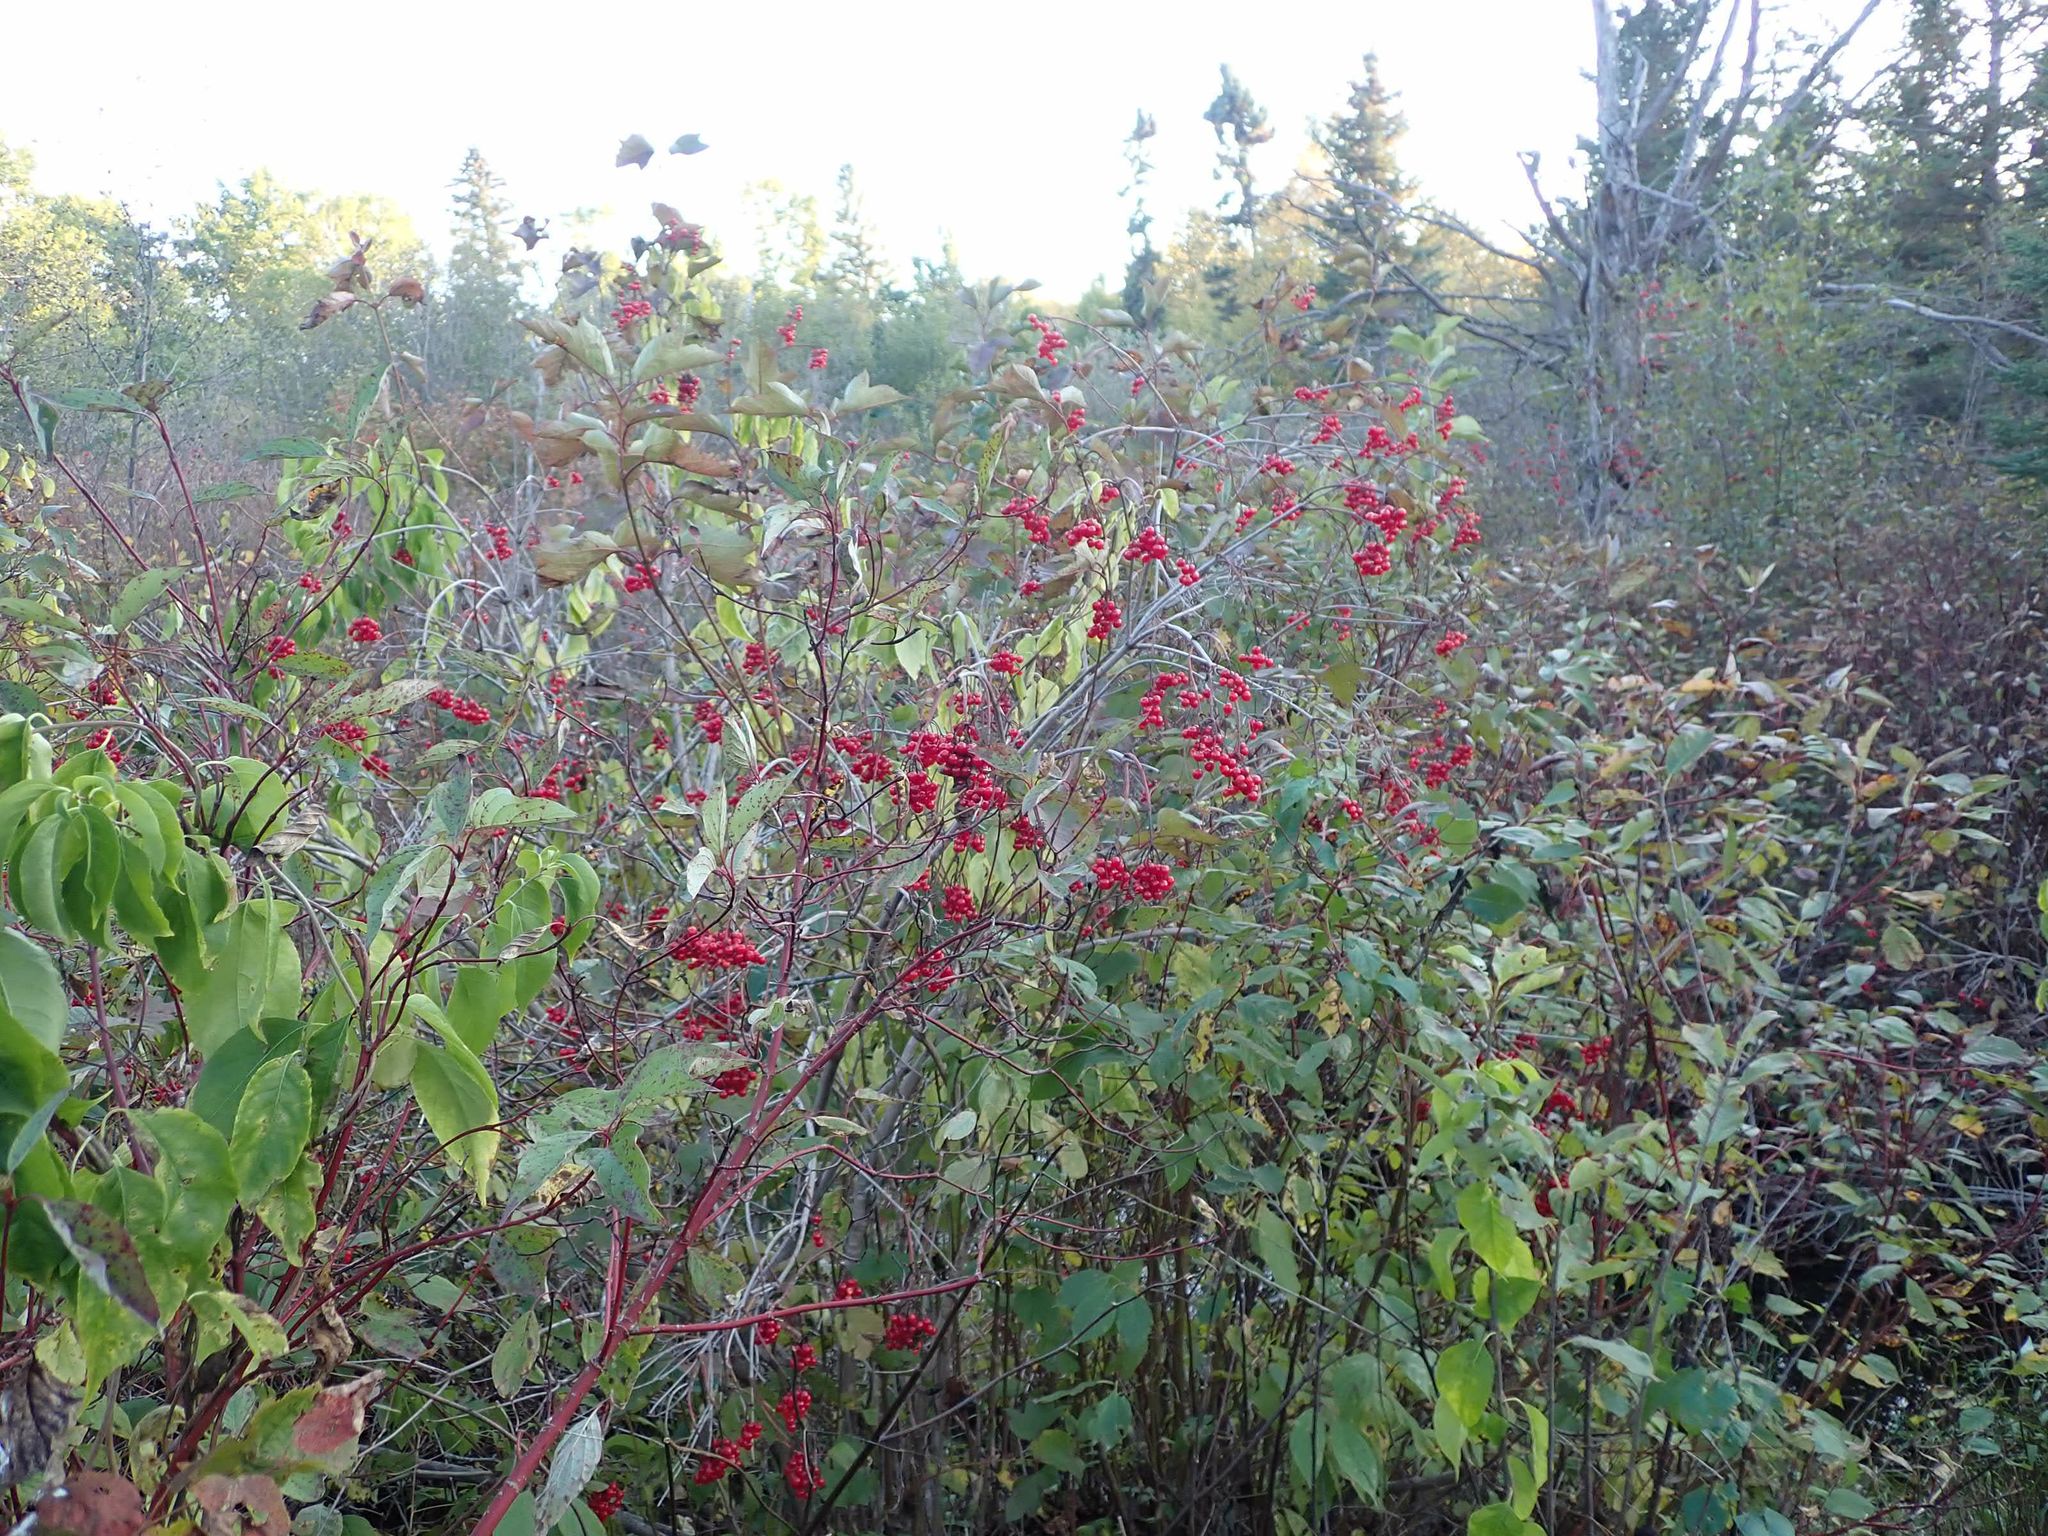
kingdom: Plantae
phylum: Tracheophyta
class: Magnoliopsida
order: Dipsacales
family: Viburnaceae
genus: Viburnum
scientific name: Viburnum trilobum
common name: American cranberrybush
